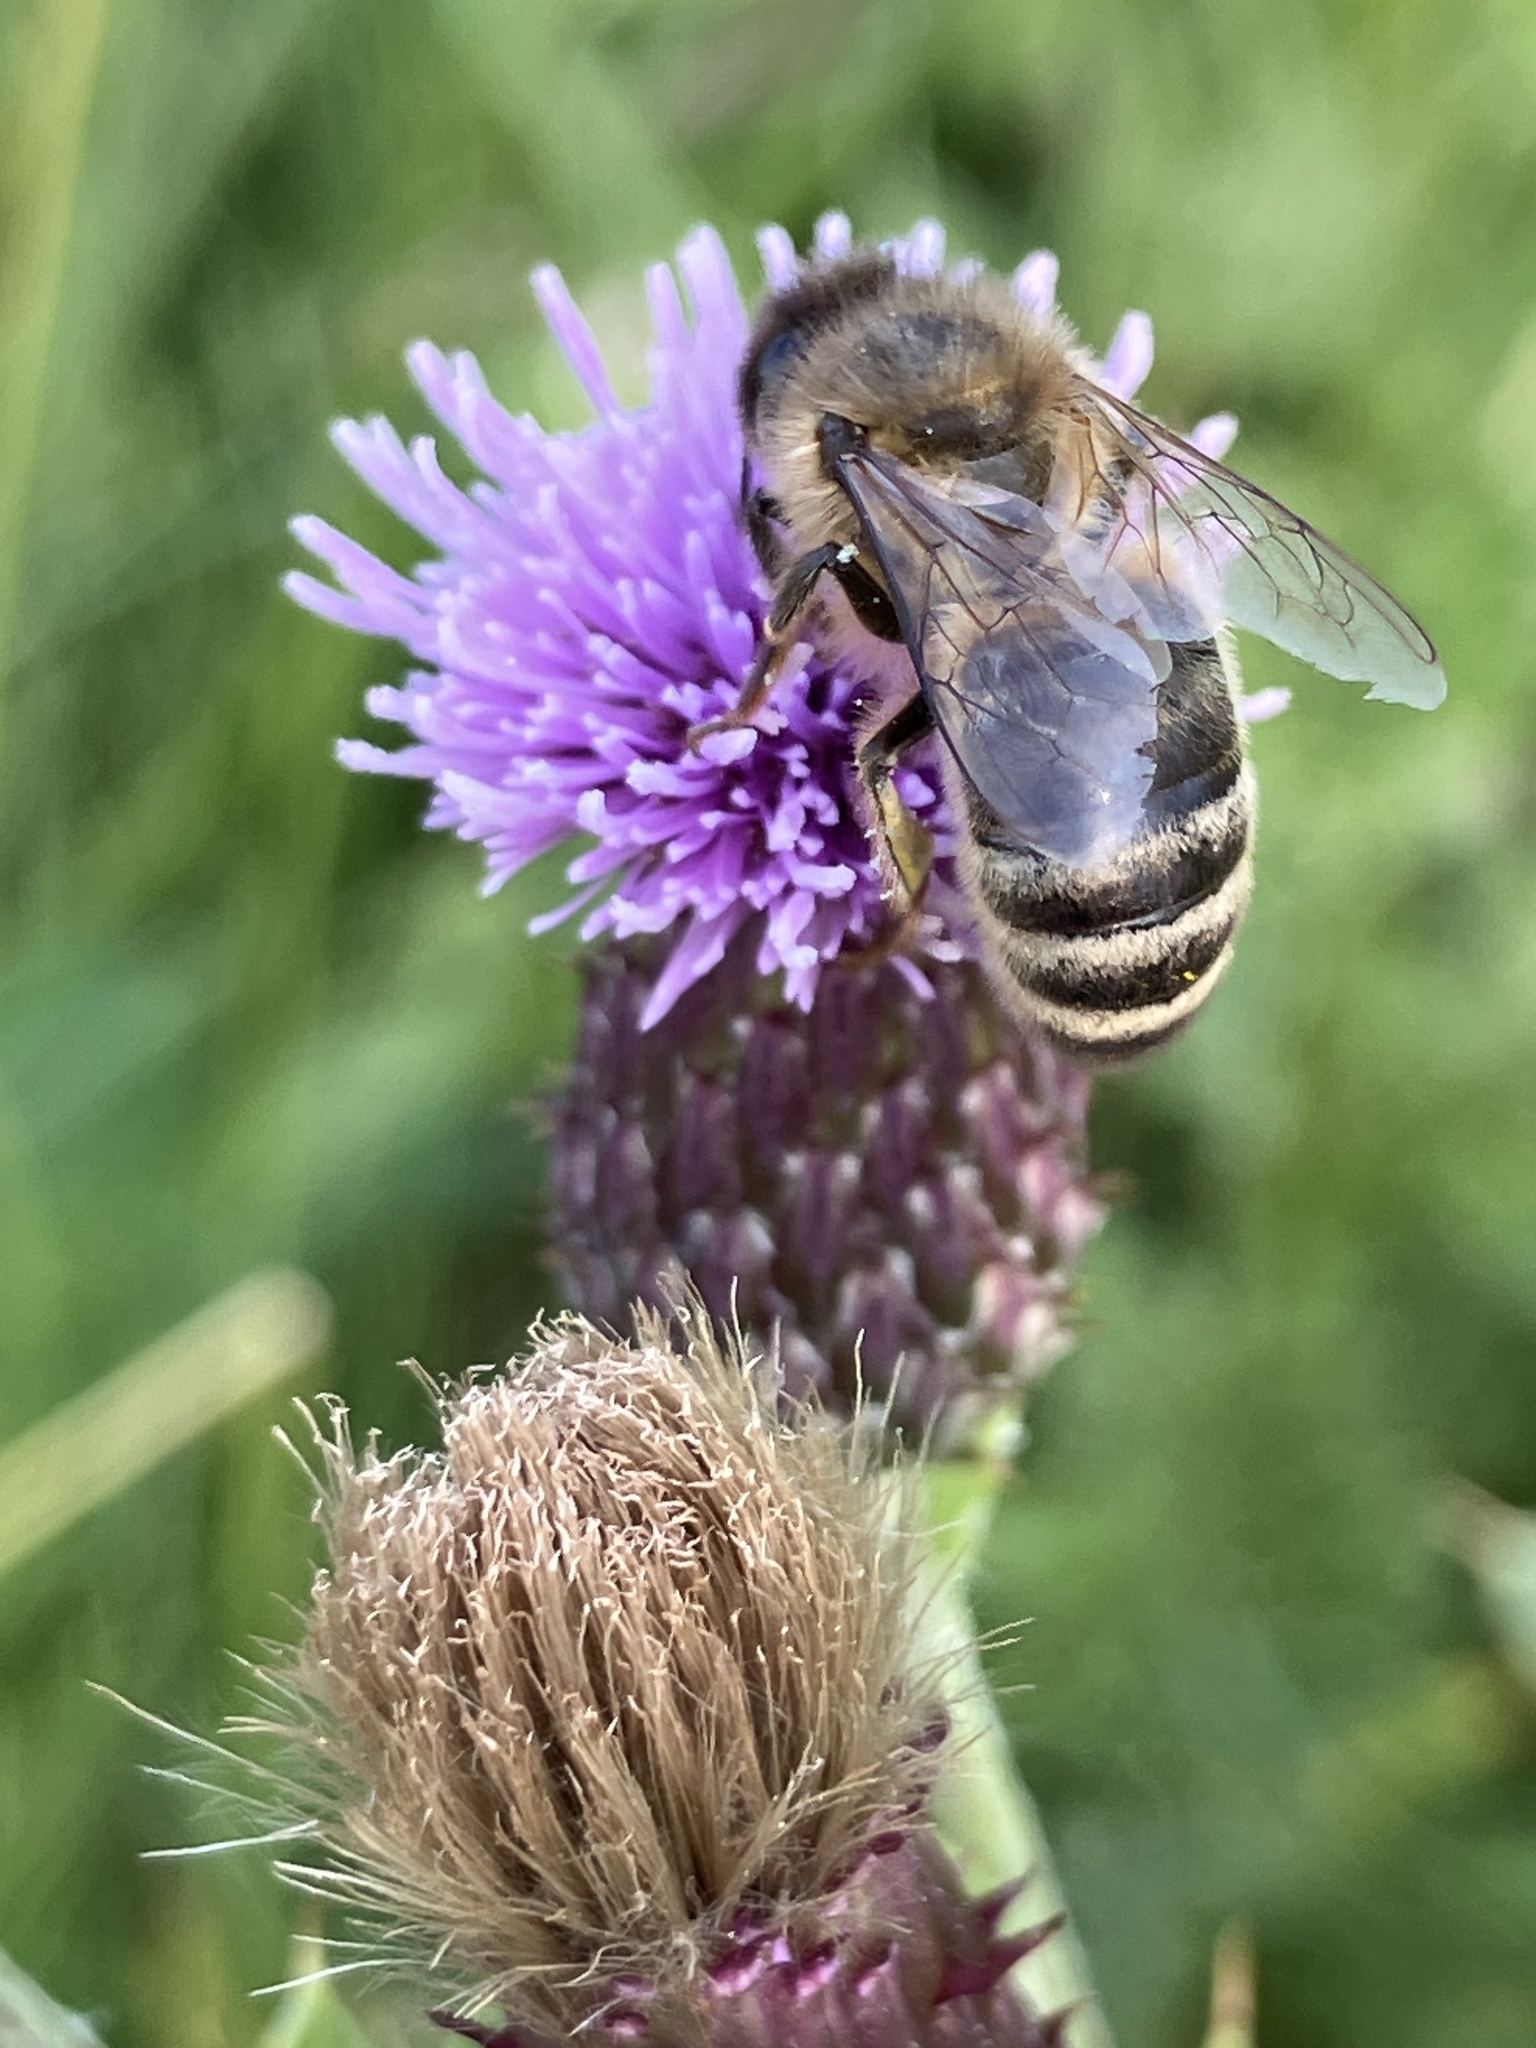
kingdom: Animalia
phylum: Arthropoda
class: Insecta
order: Hymenoptera
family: Apidae
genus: Apis
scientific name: Apis mellifera
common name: Honey bee
